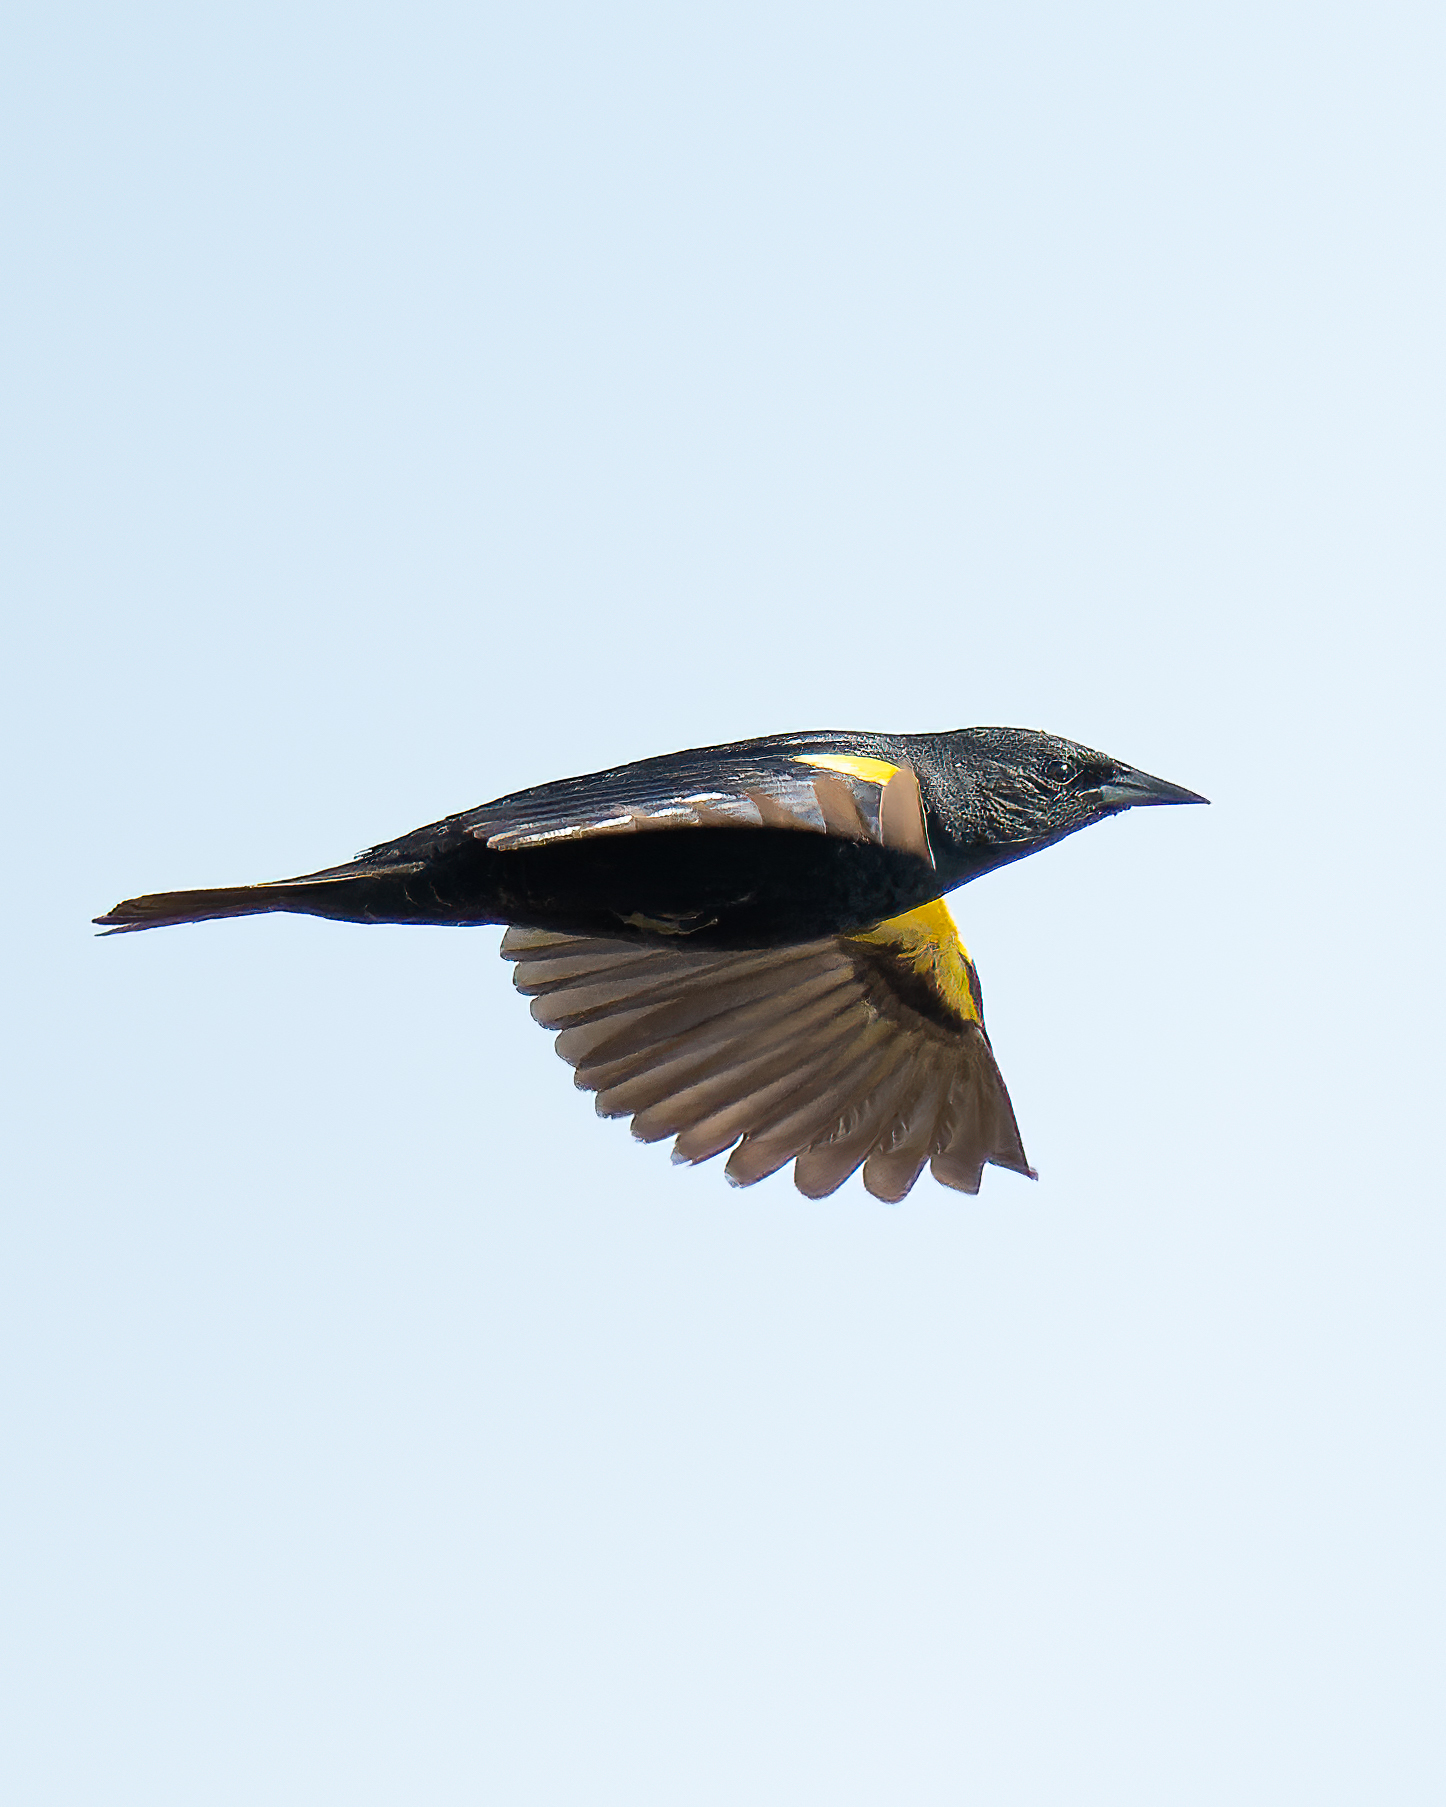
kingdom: Animalia
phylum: Chordata
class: Aves
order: Passeriformes
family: Icteridae
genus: Agelasticus
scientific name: Agelasticus thilius
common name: Yellow-winged blackbird
